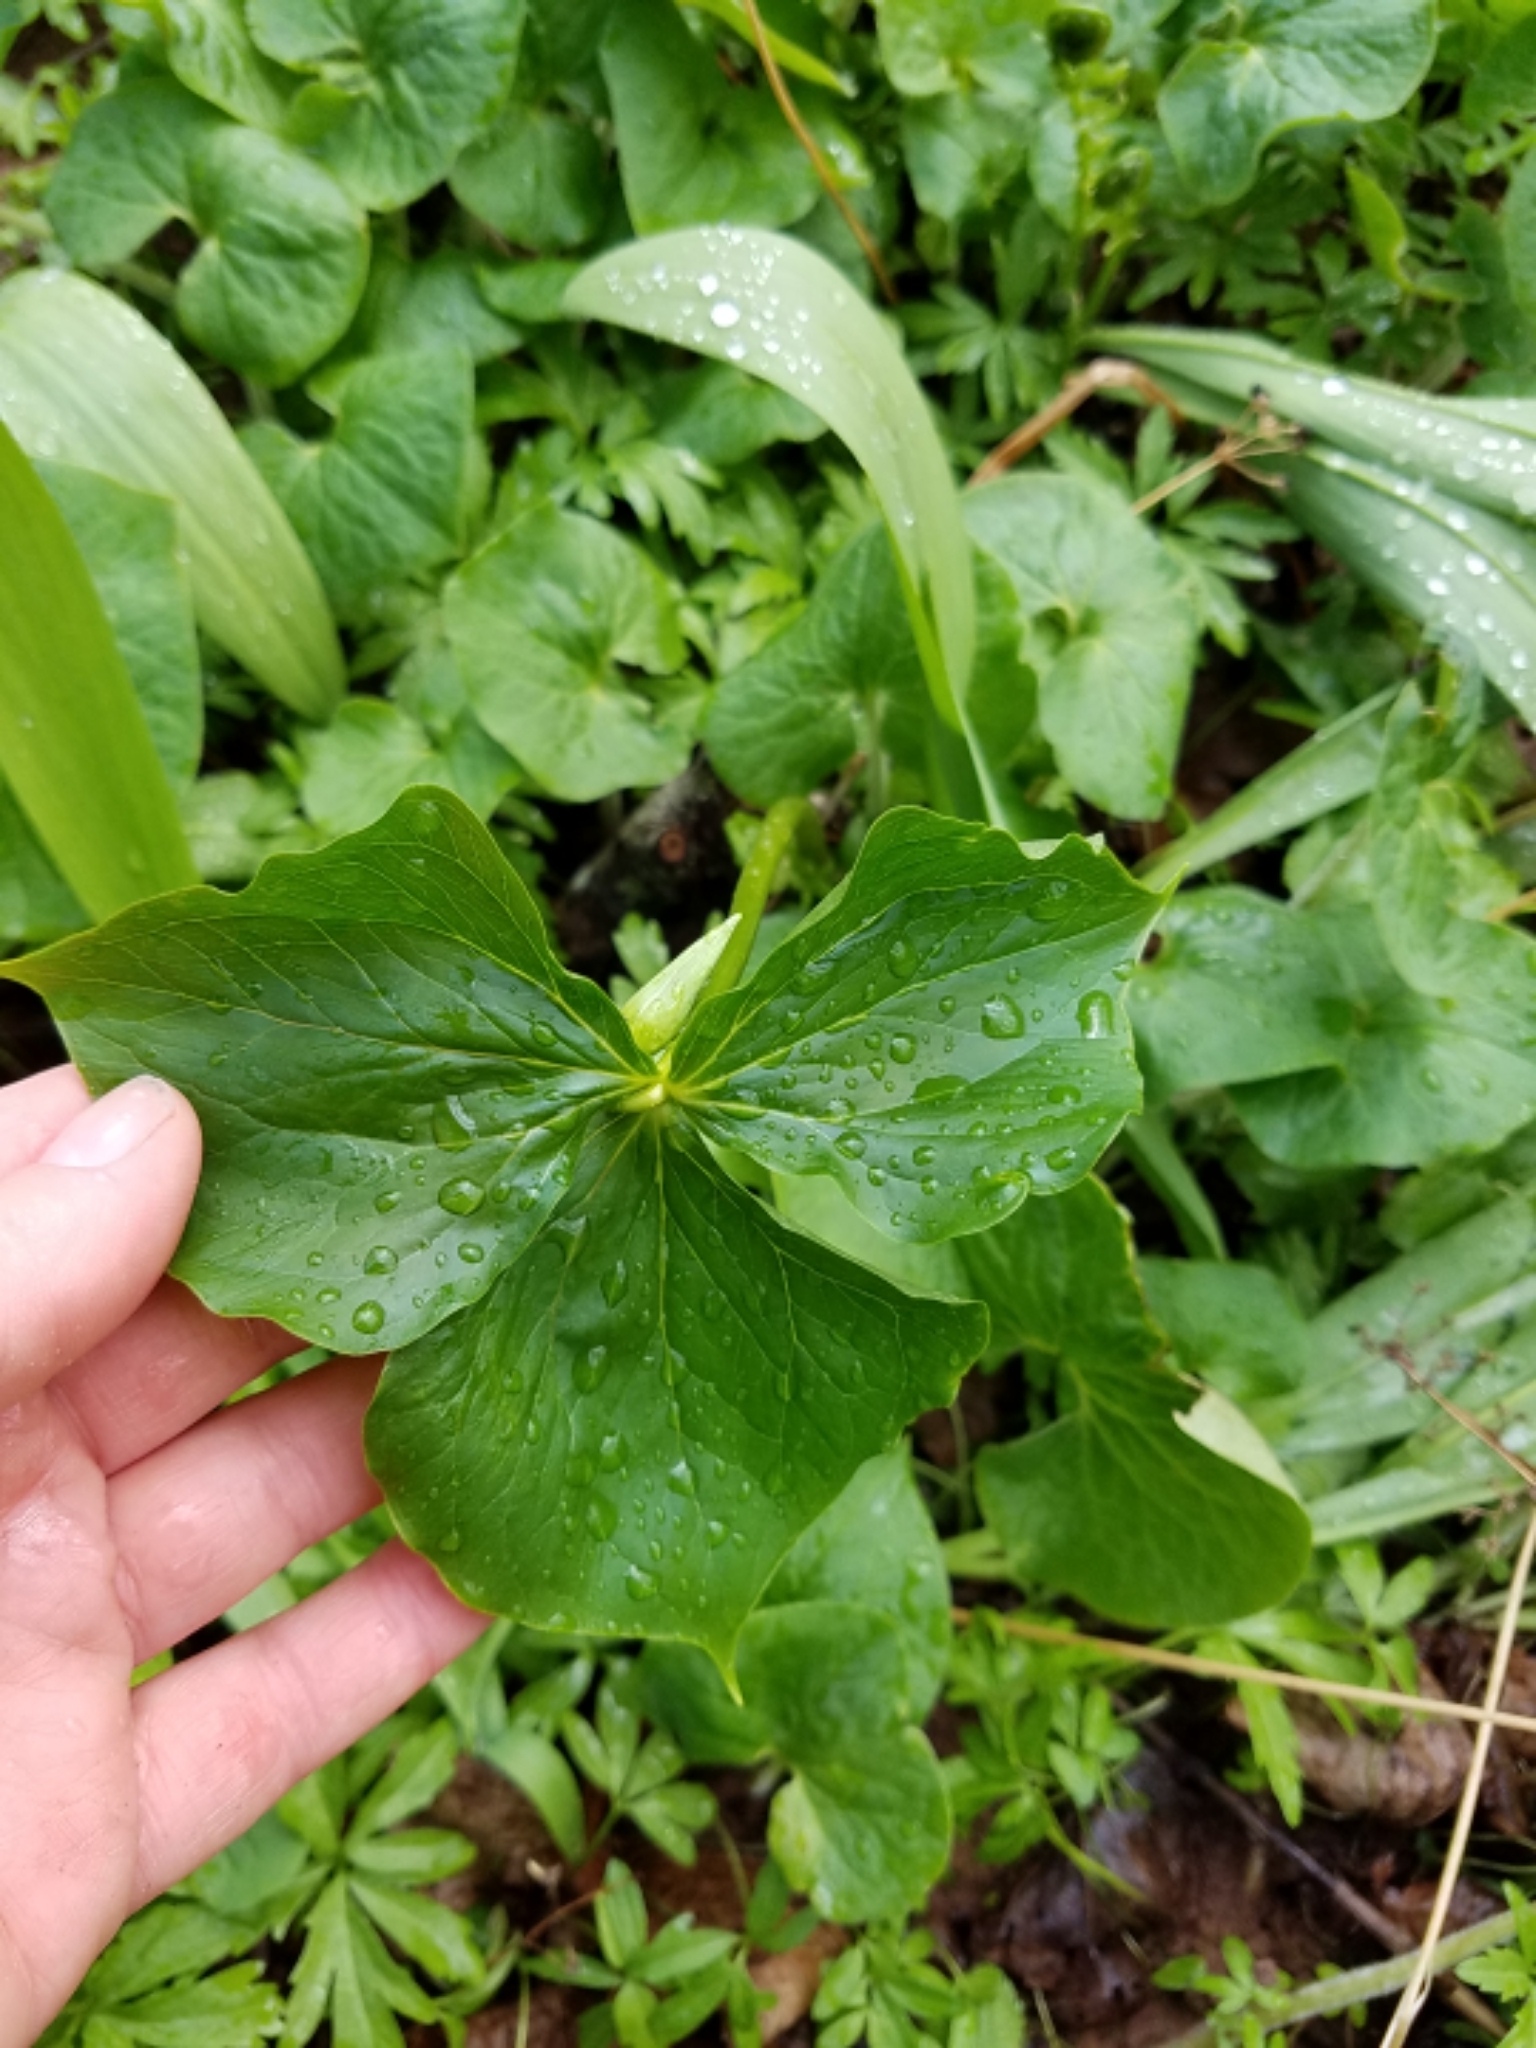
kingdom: Plantae
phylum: Tracheophyta
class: Liliopsida
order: Liliales
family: Melanthiaceae
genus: Trillium
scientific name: Trillium cernuum
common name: Nodding trillium
